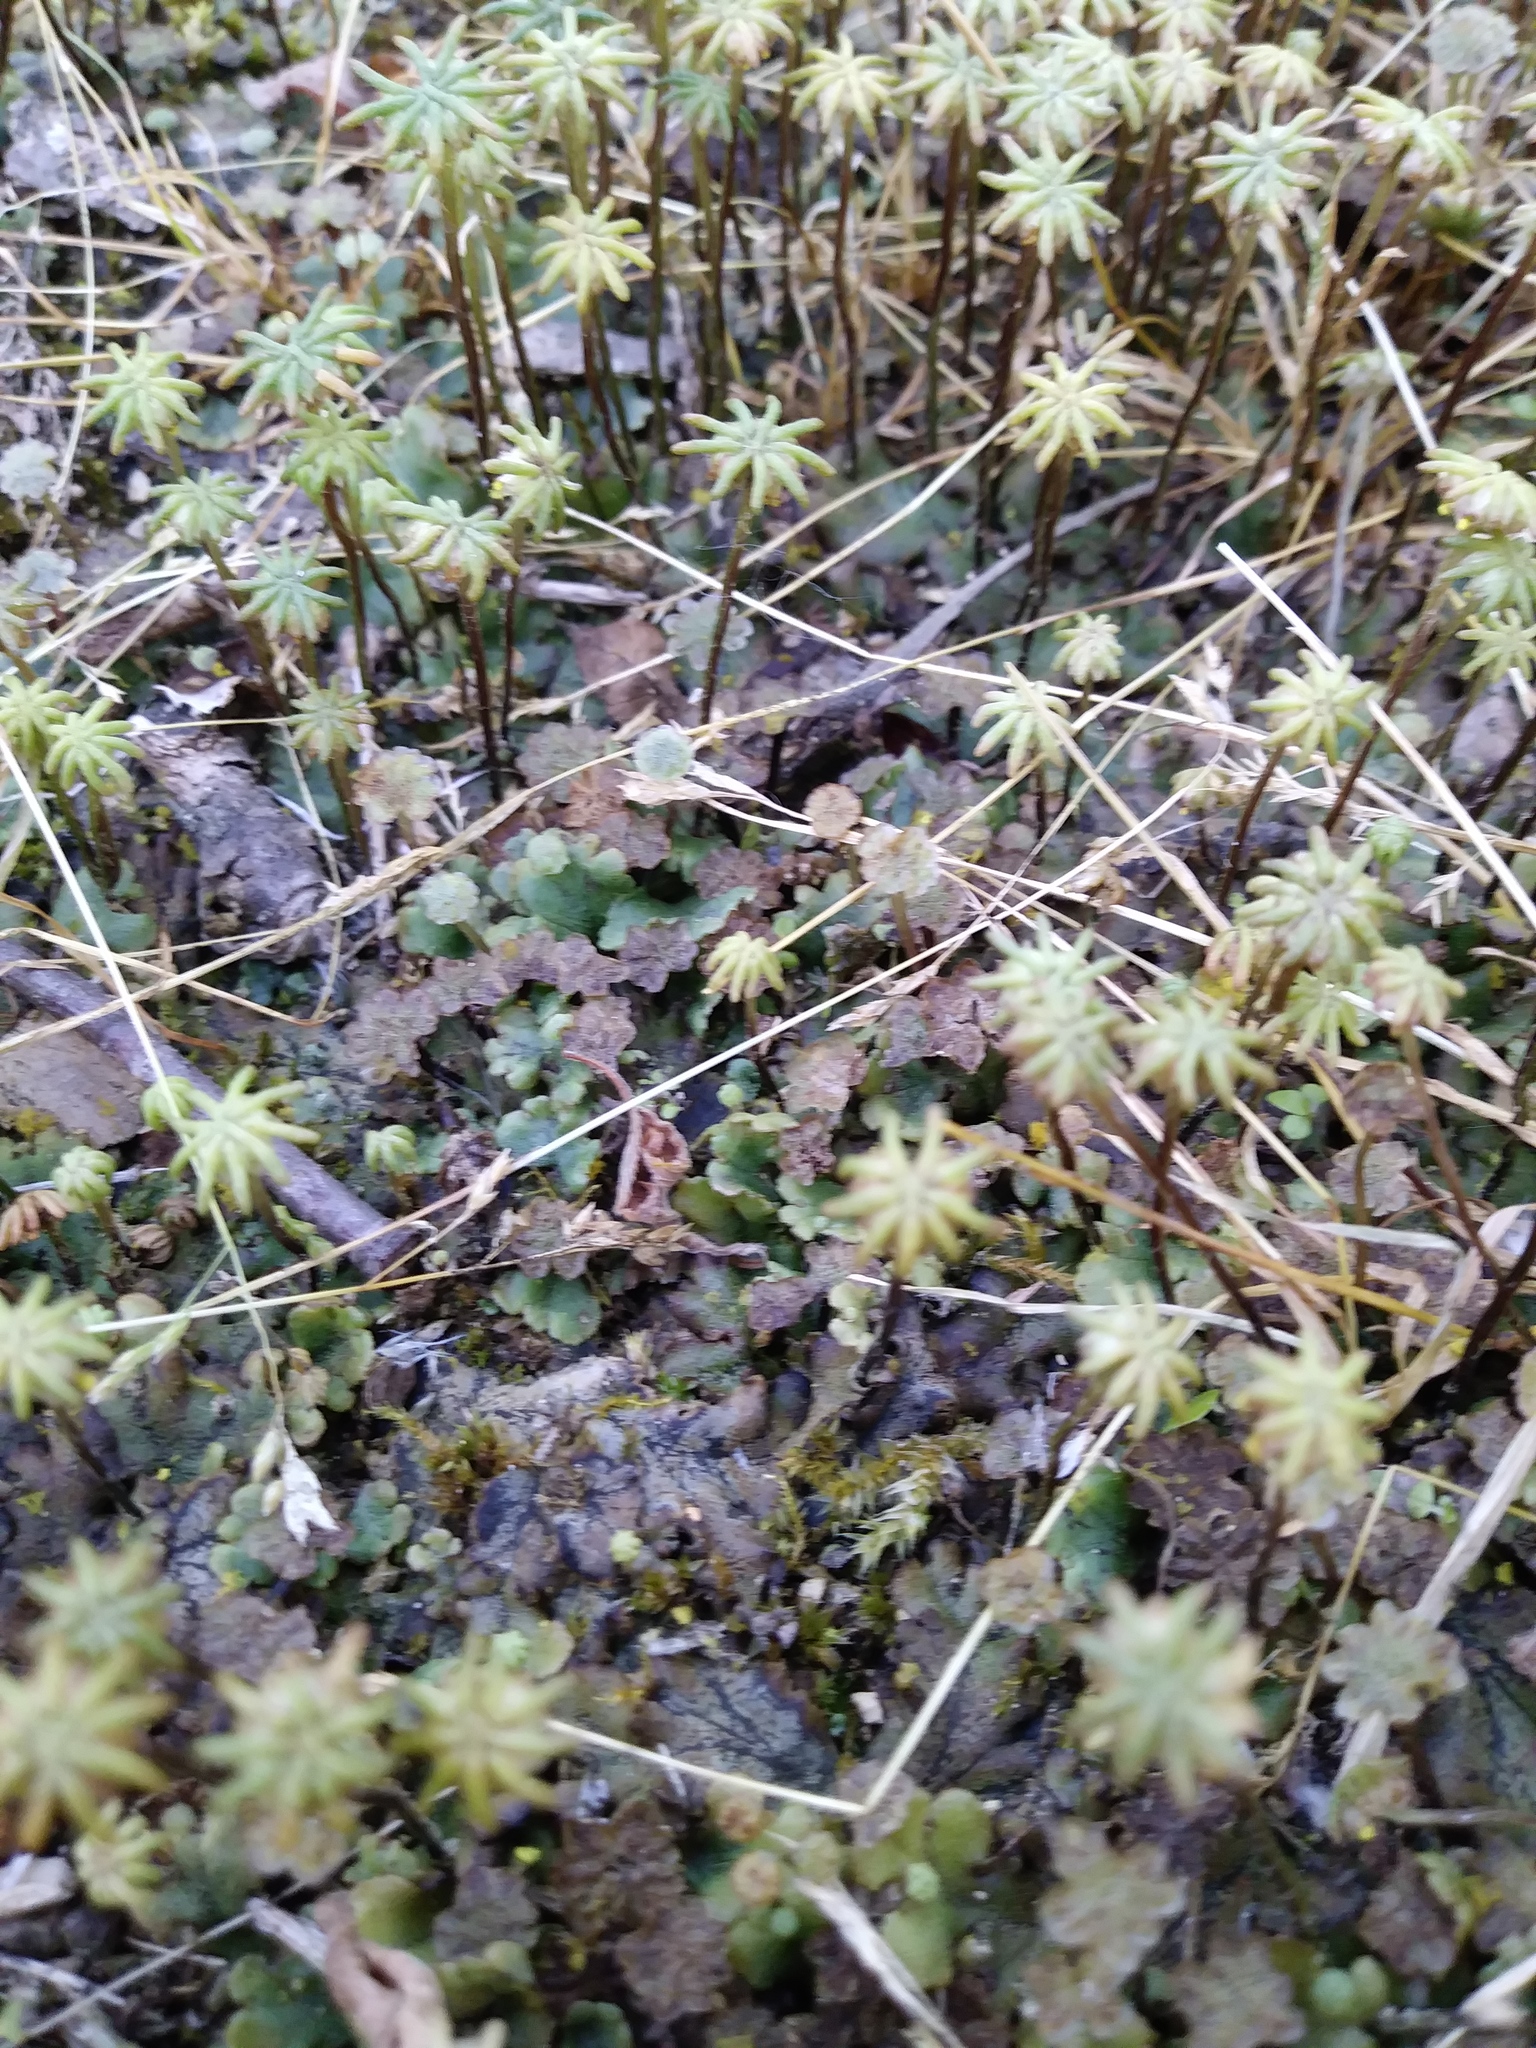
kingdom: Plantae
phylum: Marchantiophyta
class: Marchantiopsida
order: Marchantiales
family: Marchantiaceae
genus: Marchantia
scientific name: Marchantia polymorpha
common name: Common liverwort
